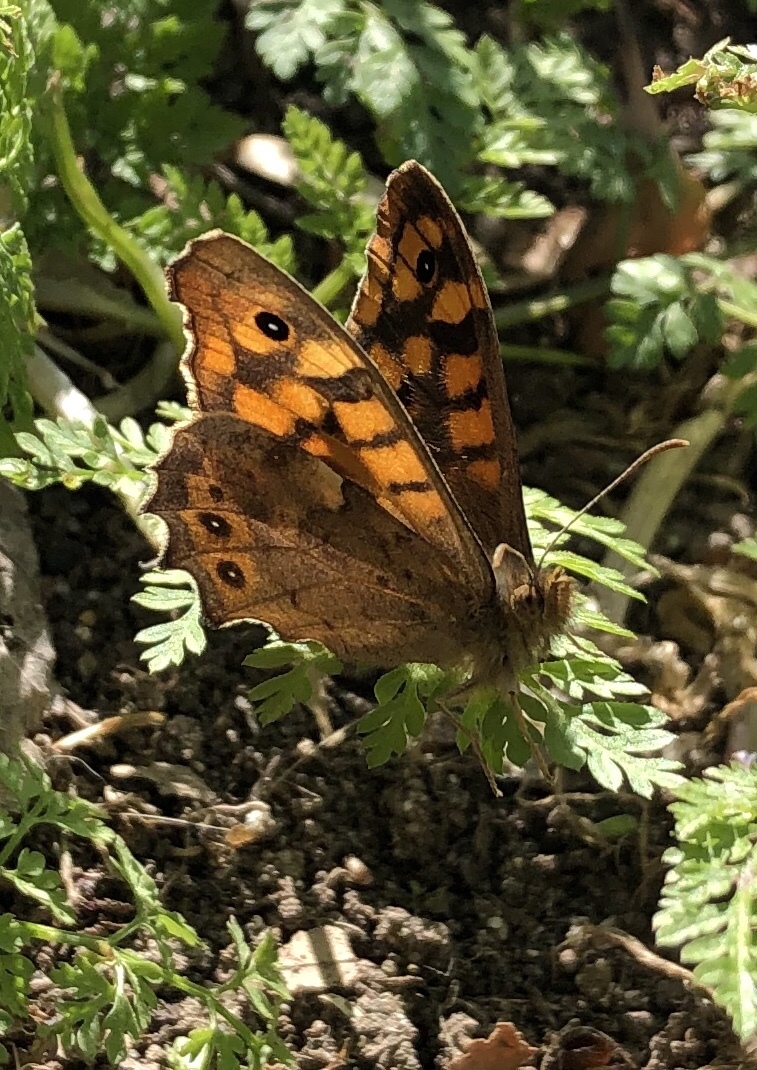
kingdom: Animalia
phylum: Arthropoda
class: Insecta
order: Lepidoptera
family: Nymphalidae
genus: Pararge
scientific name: Pararge aegeria
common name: Speckled wood
